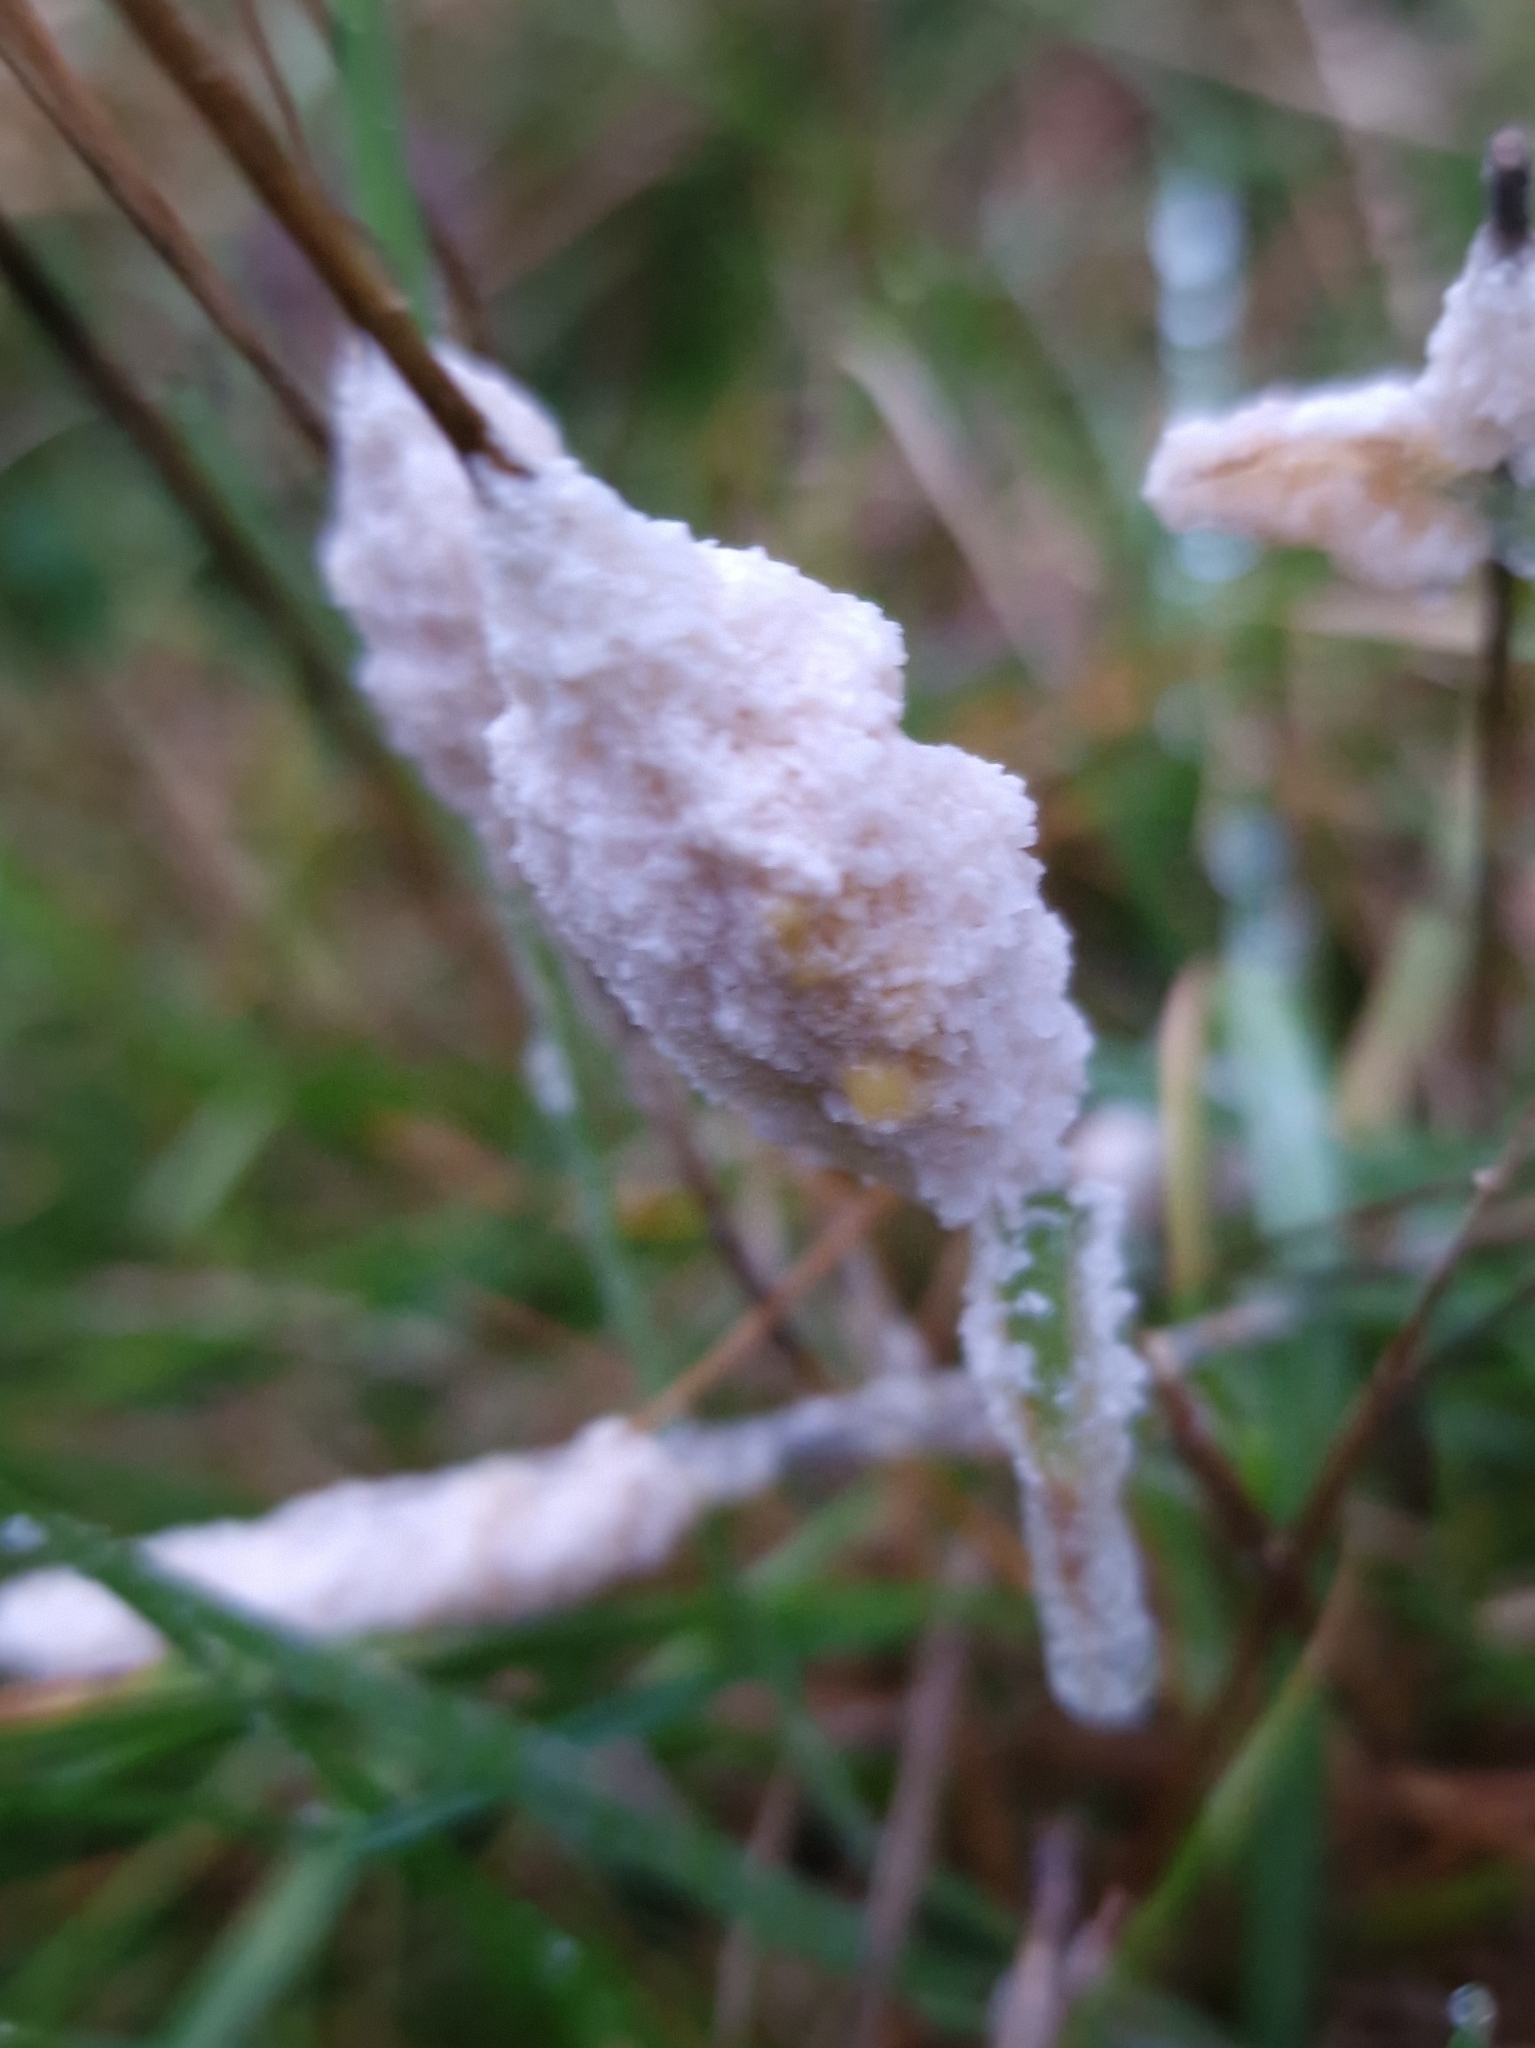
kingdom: Protozoa
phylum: Mycetozoa
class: Myxomycetes
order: Physarales
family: Physaraceae
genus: Didymium
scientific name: Didymium
